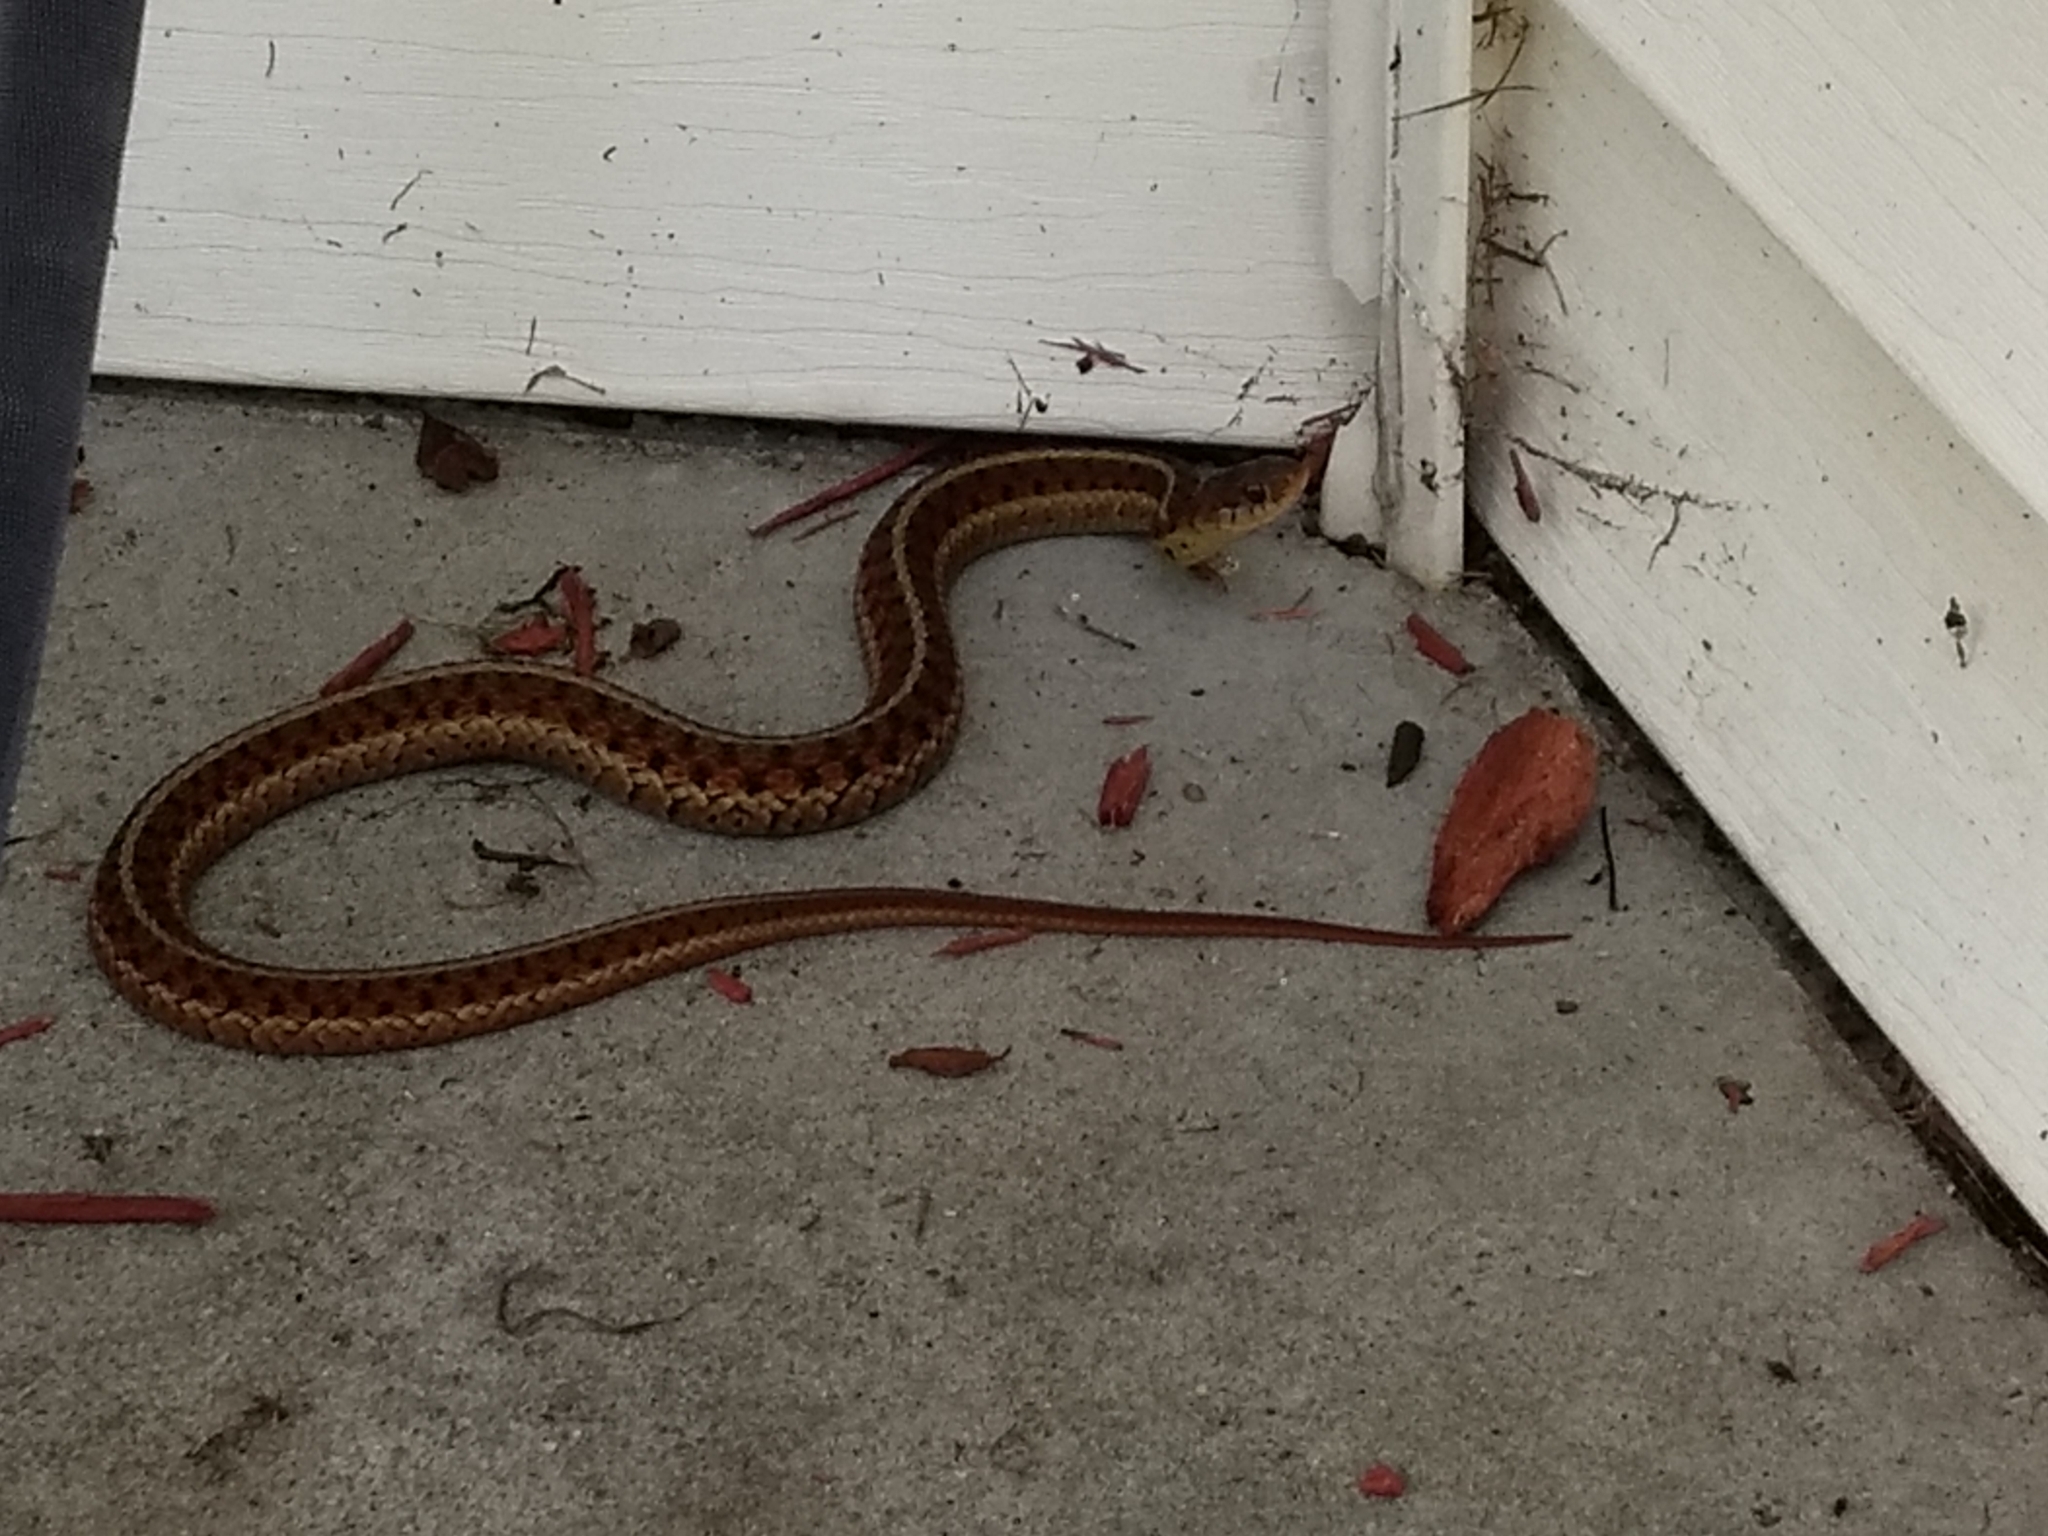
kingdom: Animalia
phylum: Chordata
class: Squamata
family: Colubridae
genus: Thamnophis
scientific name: Thamnophis sirtalis
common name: Common garter snake
